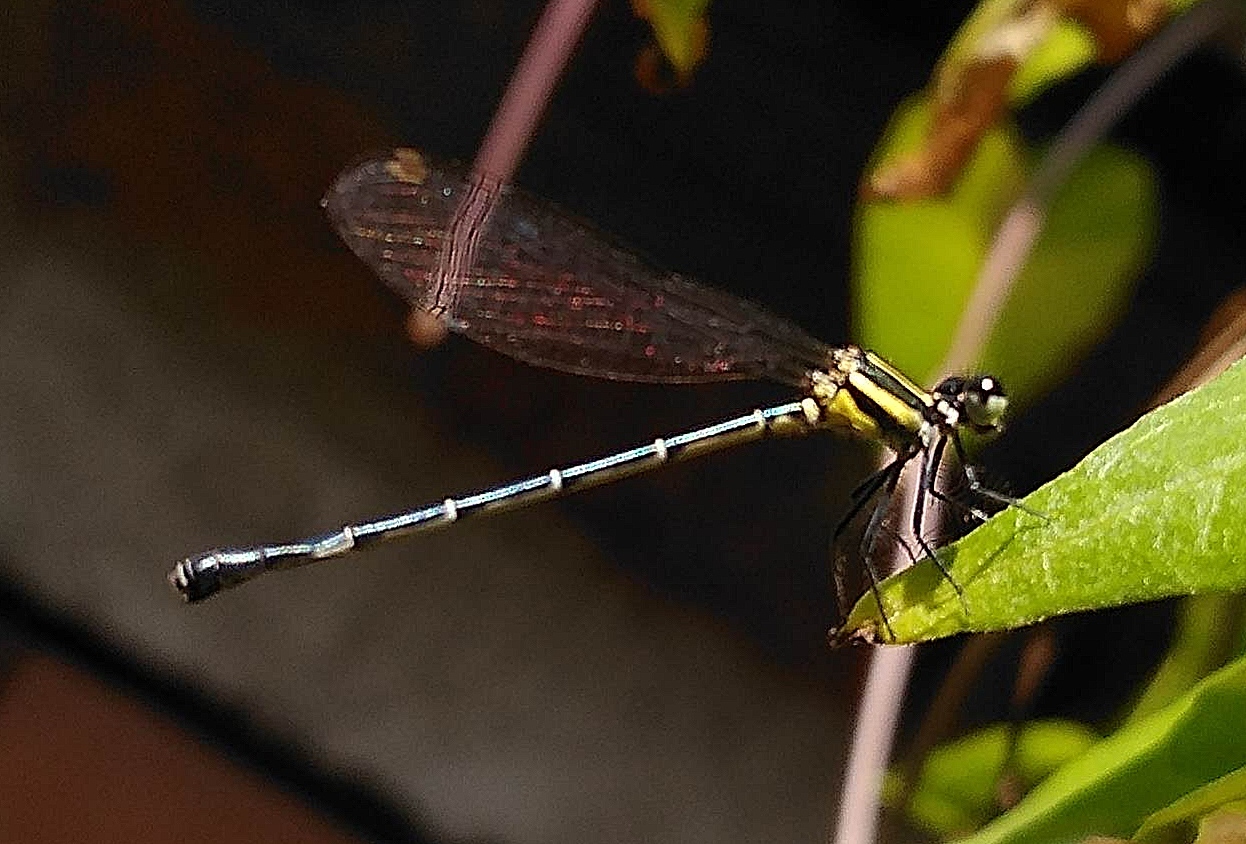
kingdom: Animalia
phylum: Arthropoda
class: Insecta
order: Odonata
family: Platycnemididae
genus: Onychargia
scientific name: Onychargia atrocyana
